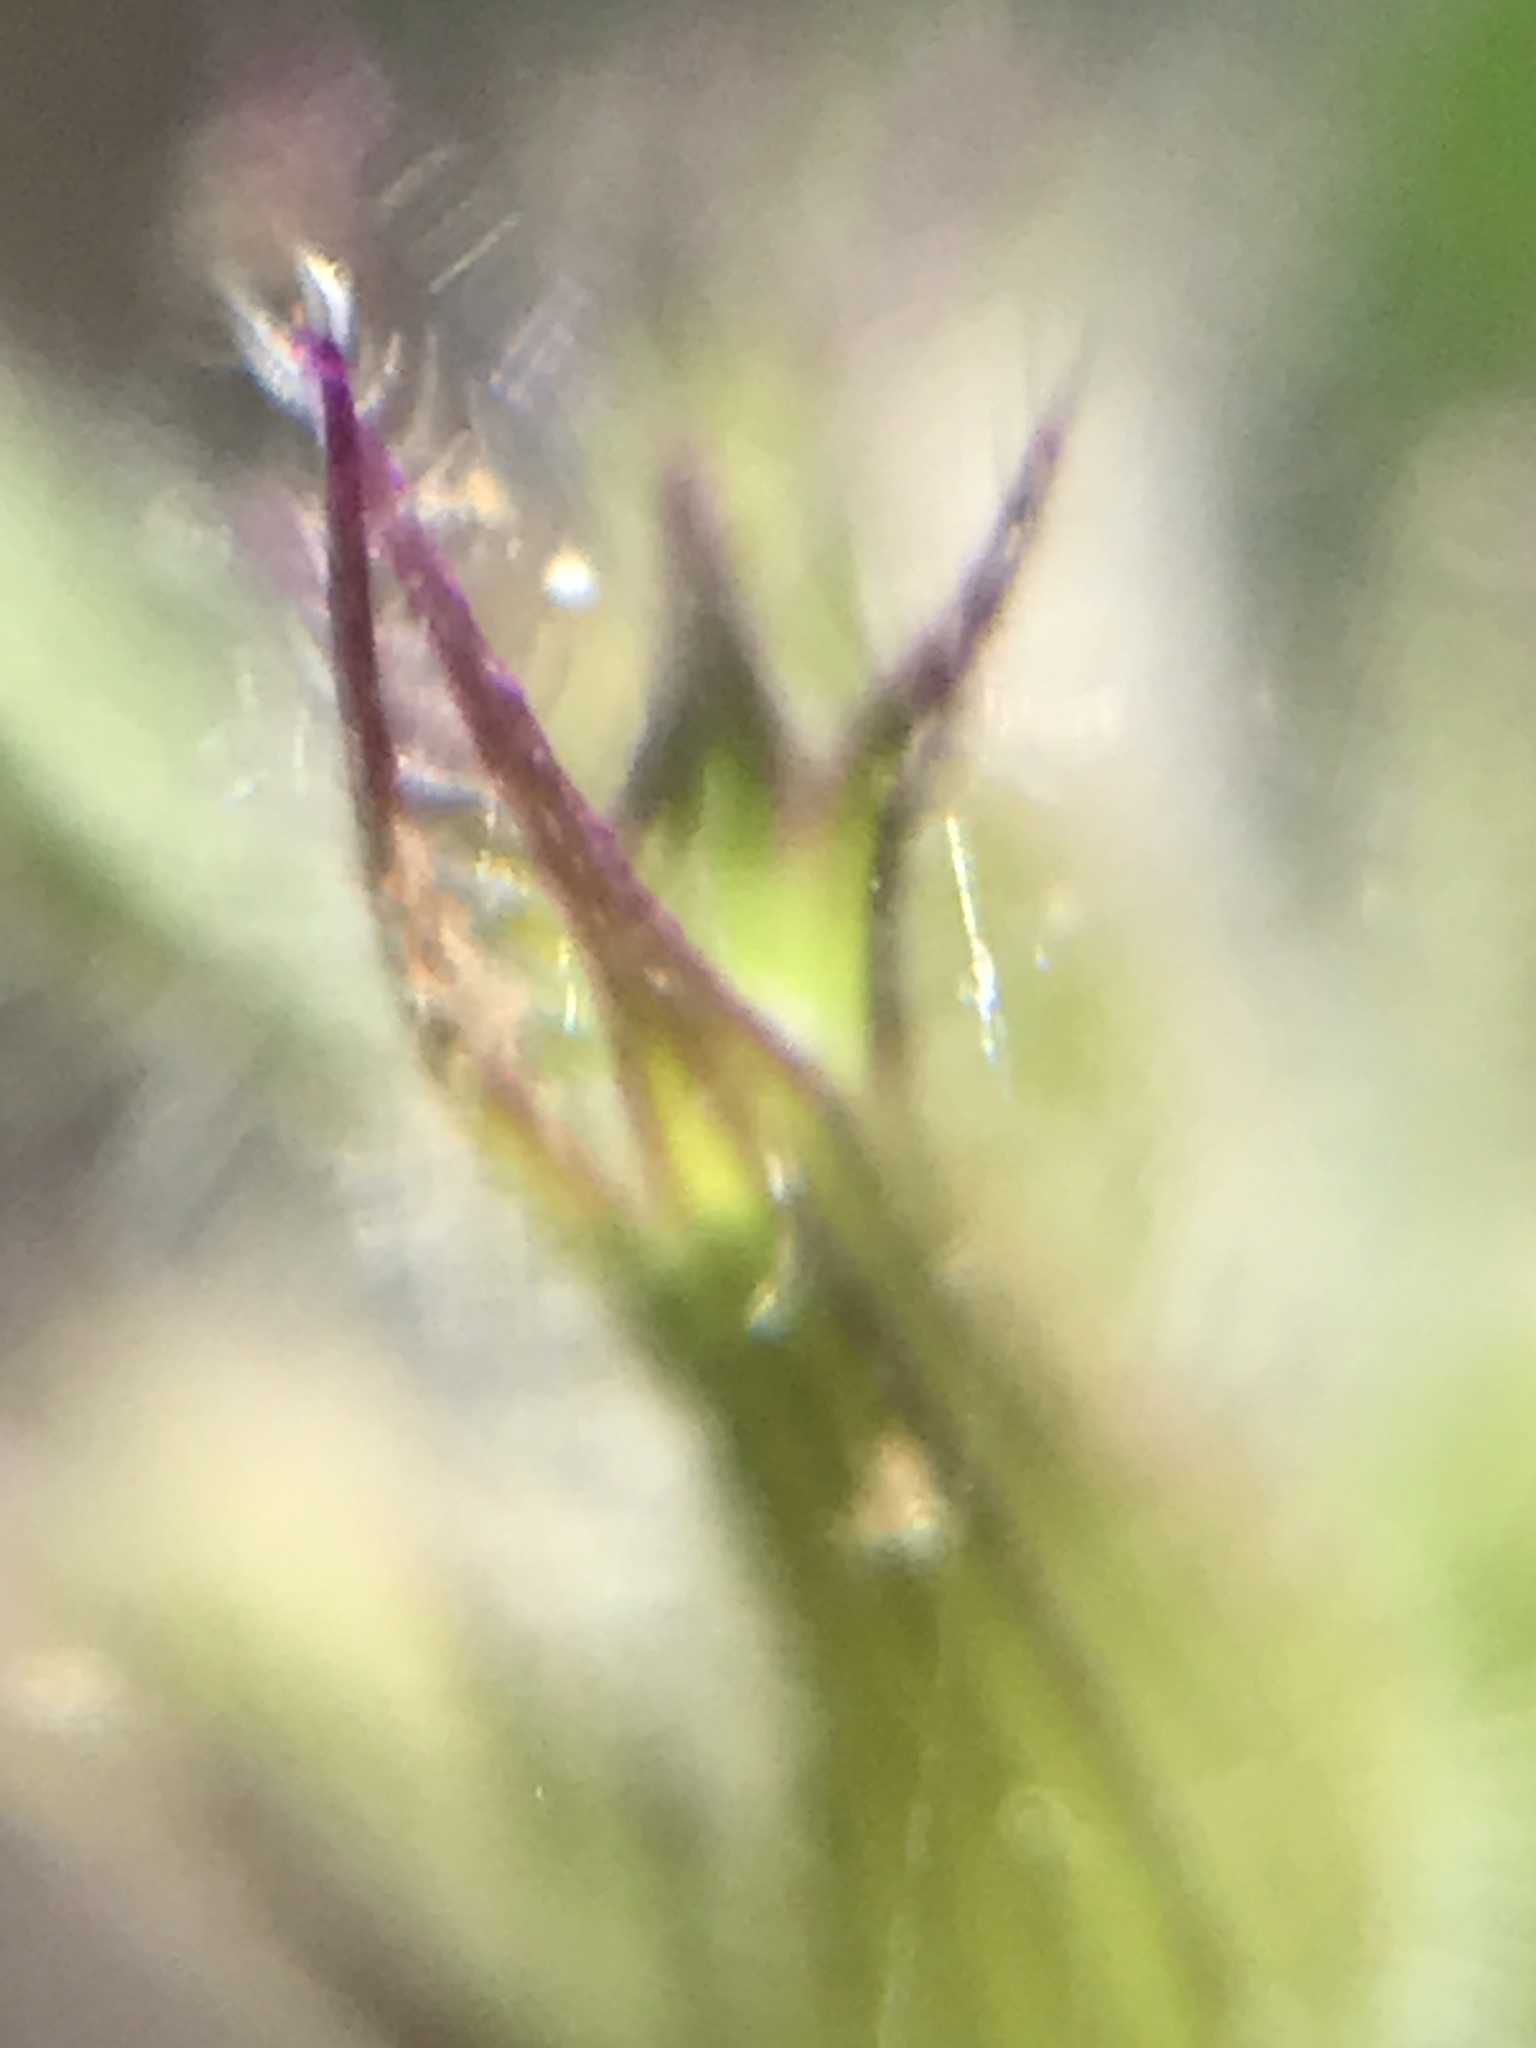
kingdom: Plantae
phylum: Tracheophyta
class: Magnoliopsida
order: Lamiales
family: Lamiaceae
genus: Hedeoma
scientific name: Hedeoma costata
